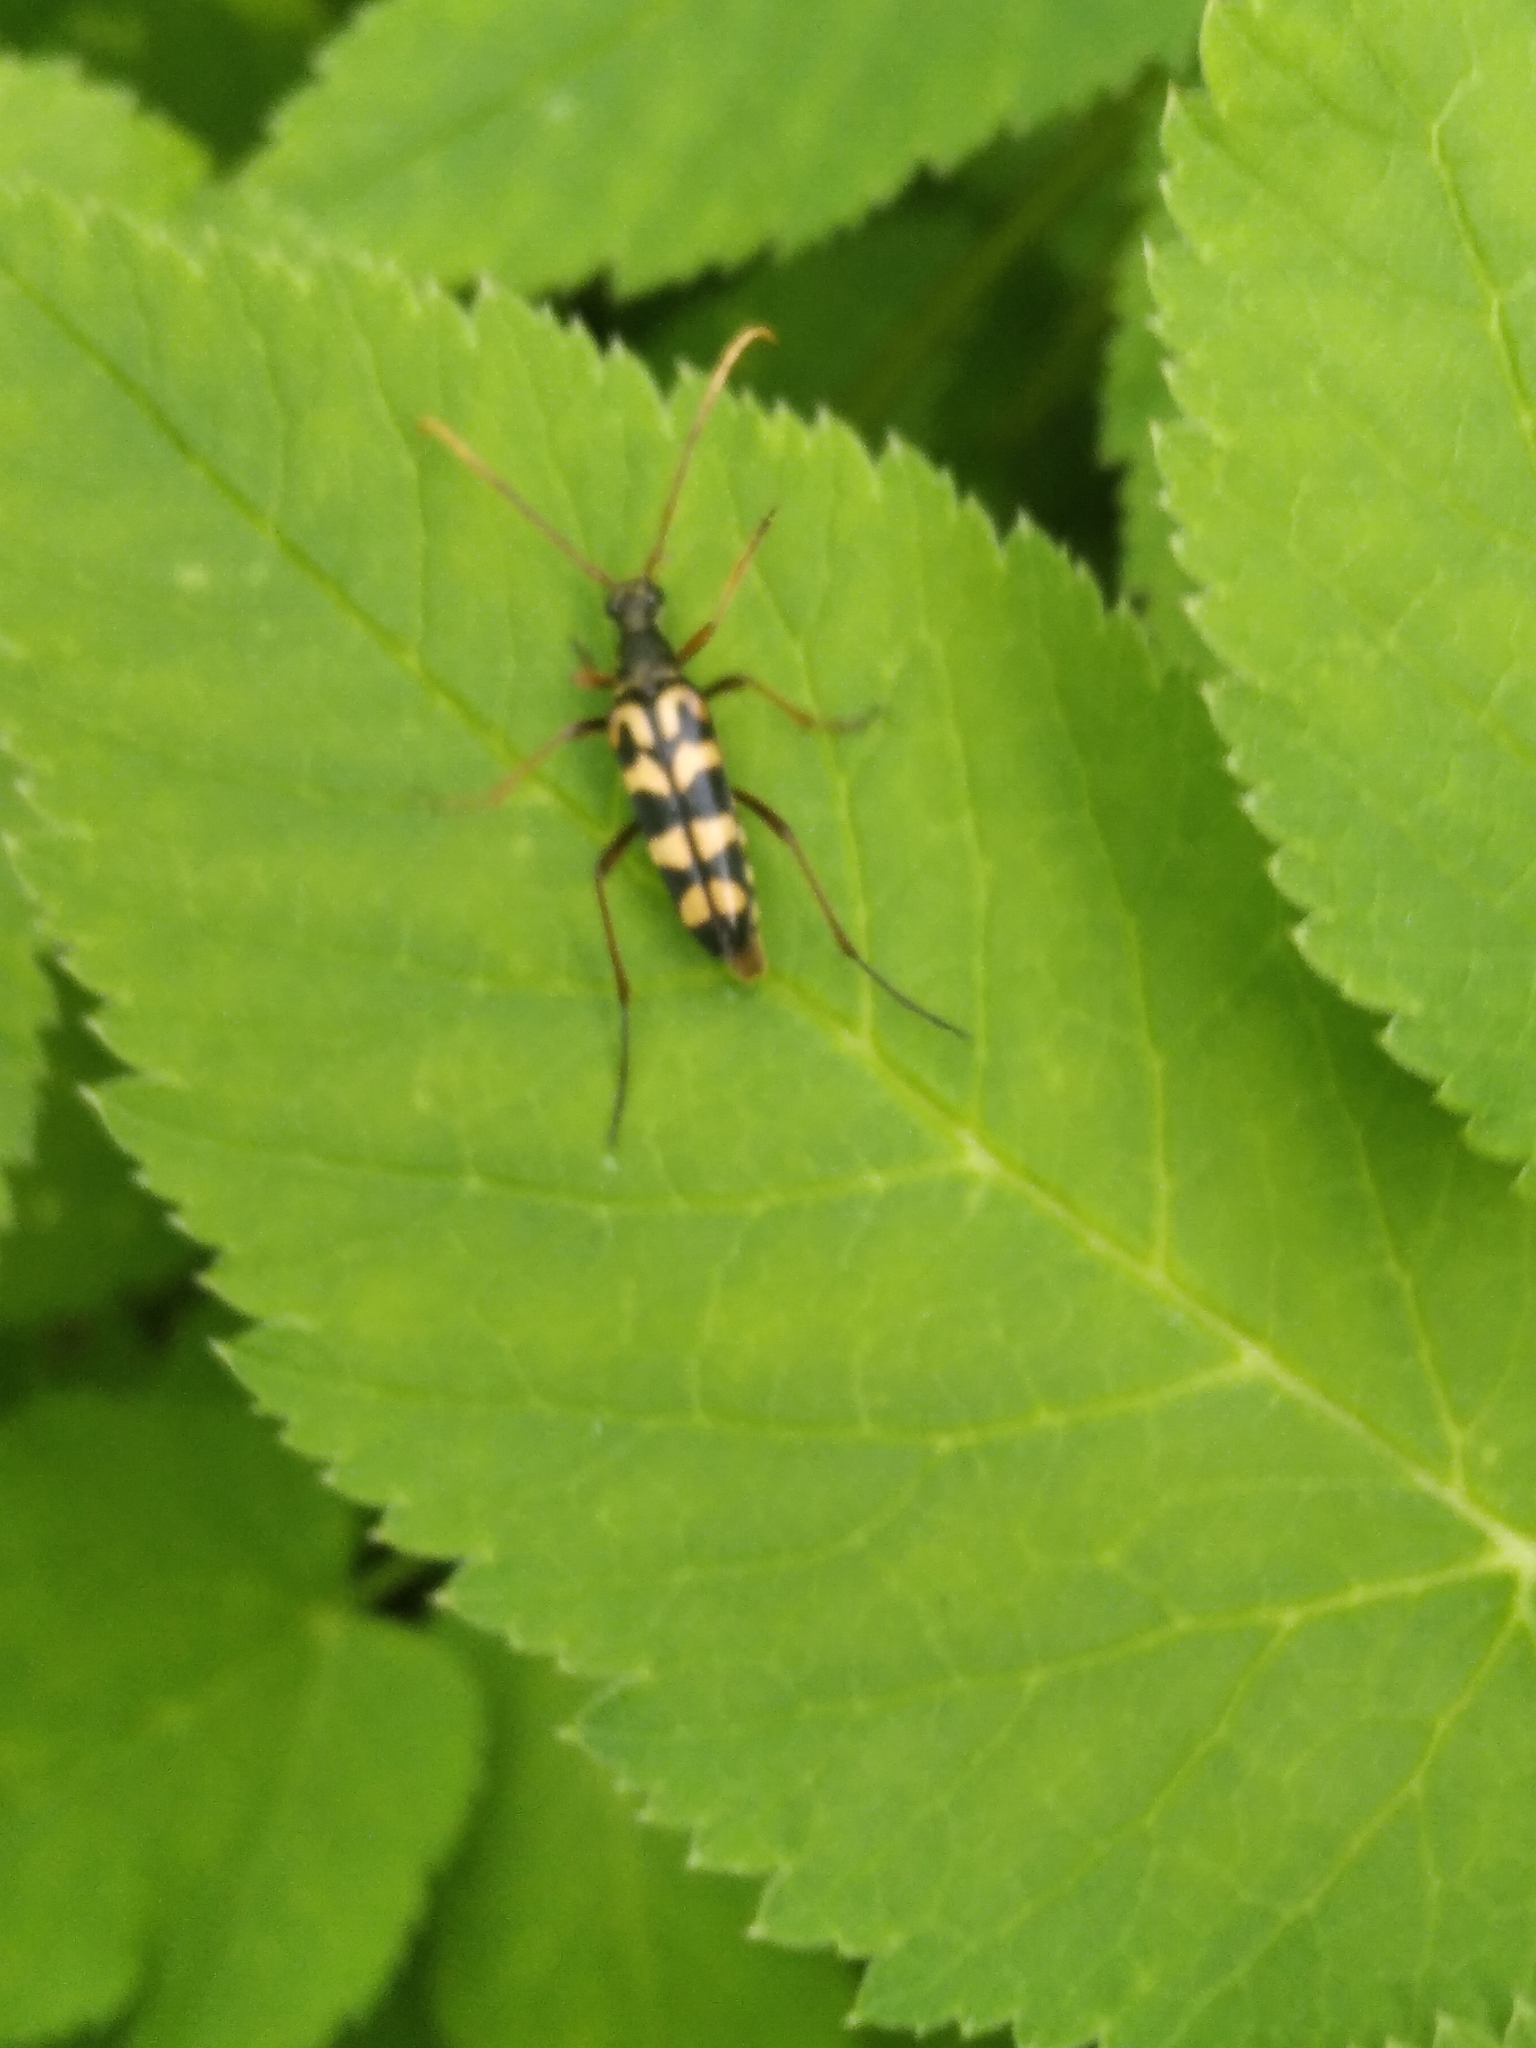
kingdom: Animalia
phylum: Arthropoda
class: Insecta
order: Coleoptera
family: Cerambycidae
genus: Leptura
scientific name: Leptura annularis
